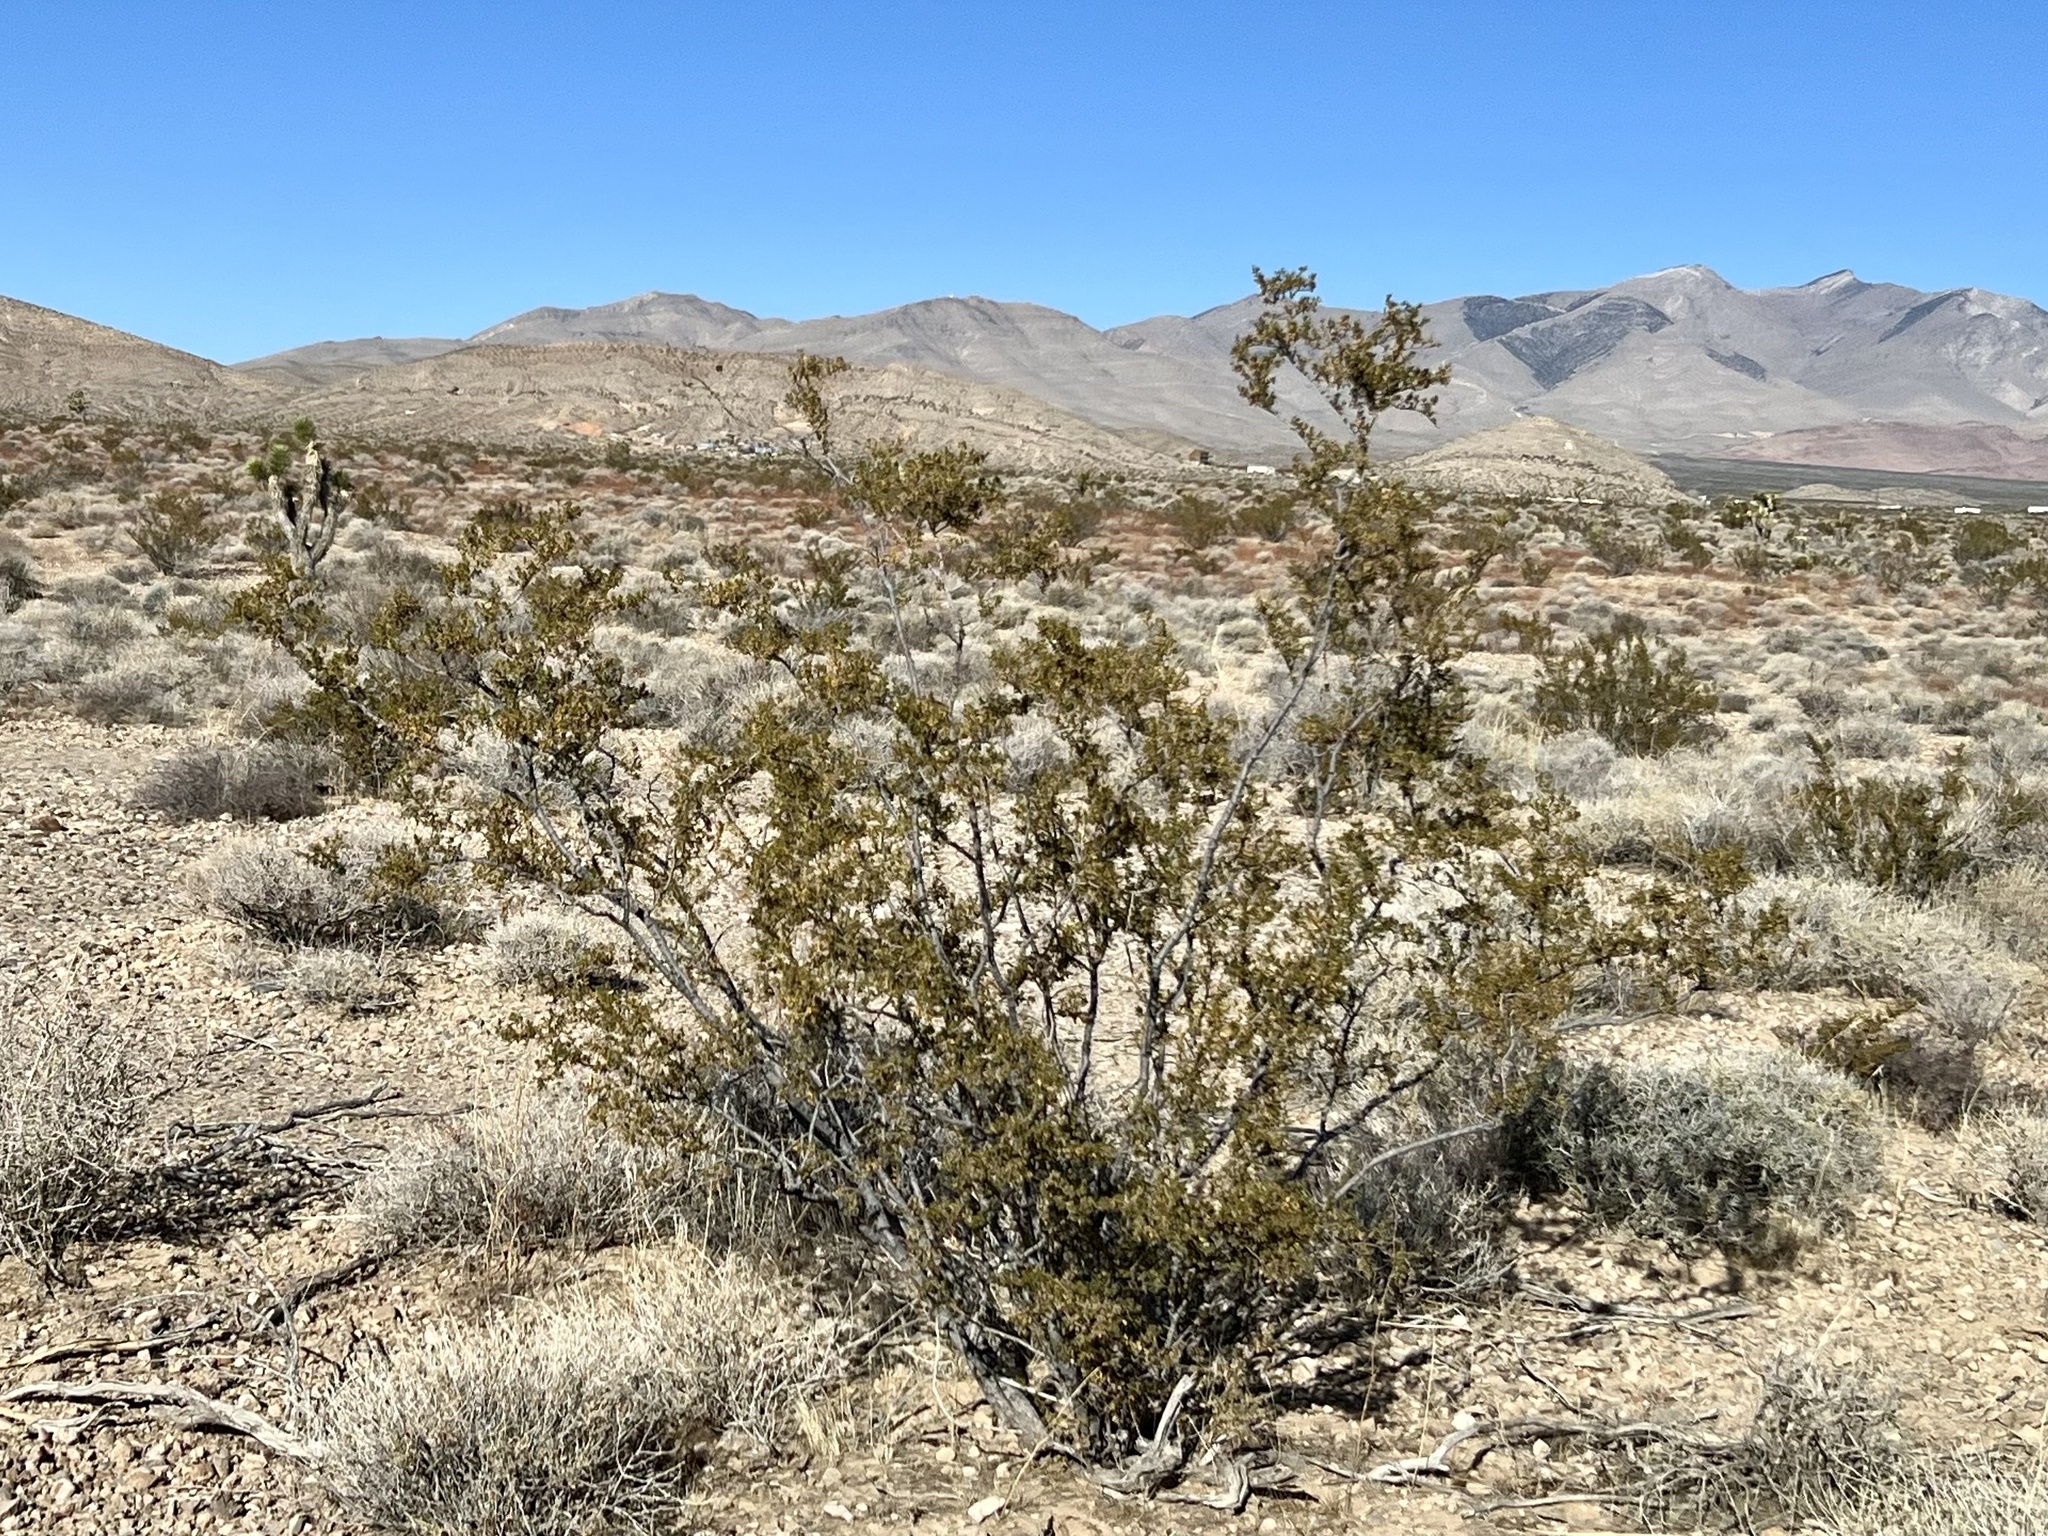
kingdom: Plantae
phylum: Tracheophyta
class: Magnoliopsida
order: Zygophyllales
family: Zygophyllaceae
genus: Larrea
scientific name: Larrea tridentata
